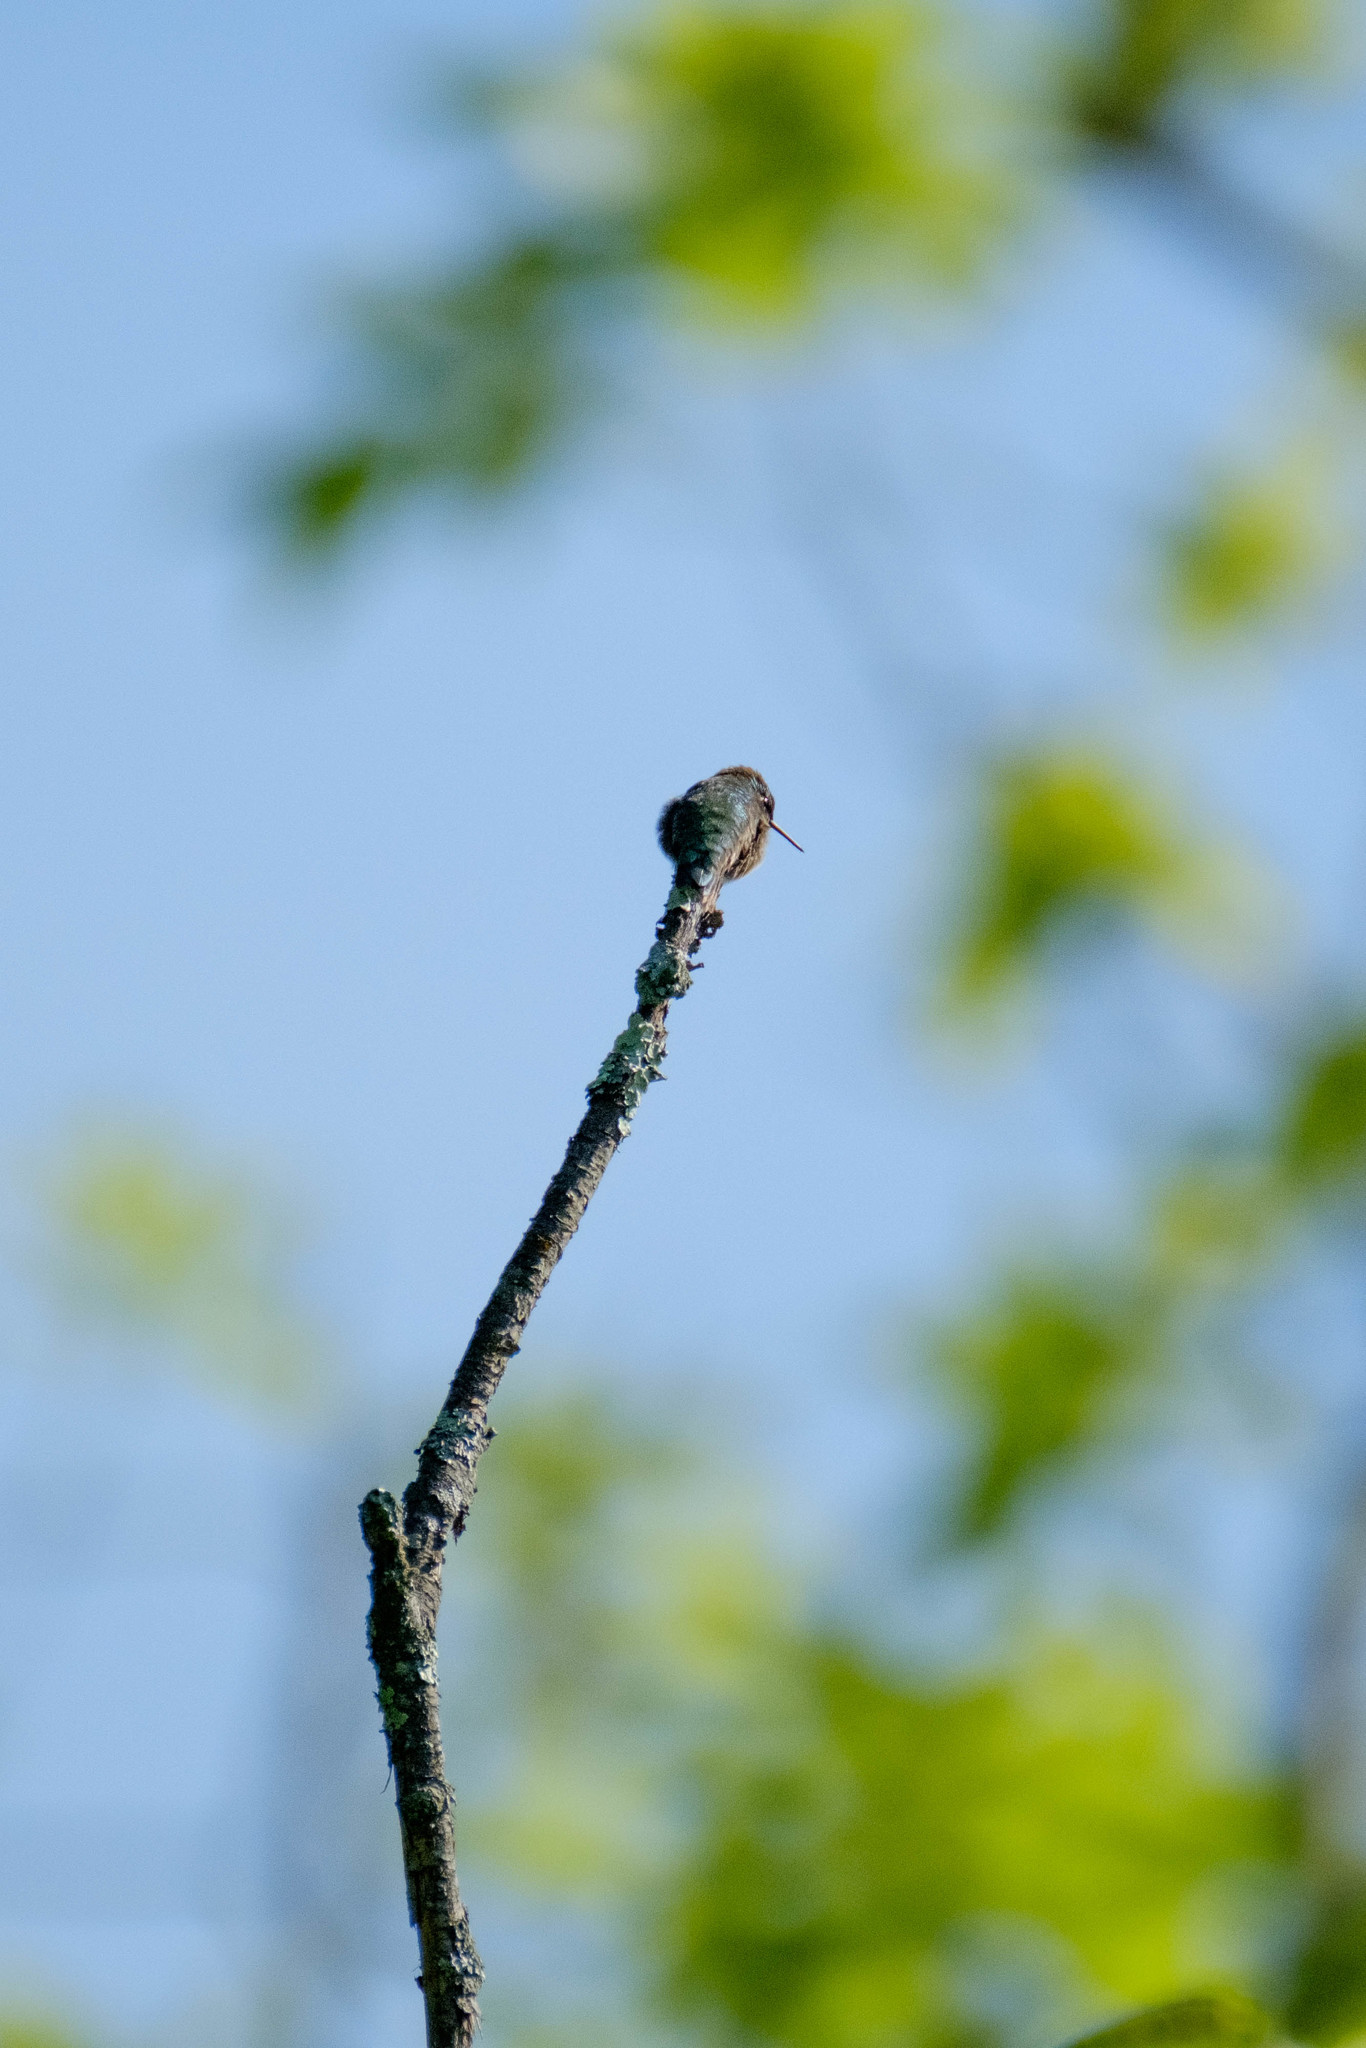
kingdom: Animalia
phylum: Chordata
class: Aves
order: Apodiformes
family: Trochilidae
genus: Archilochus
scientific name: Archilochus colubris
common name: Ruby-throated hummingbird
